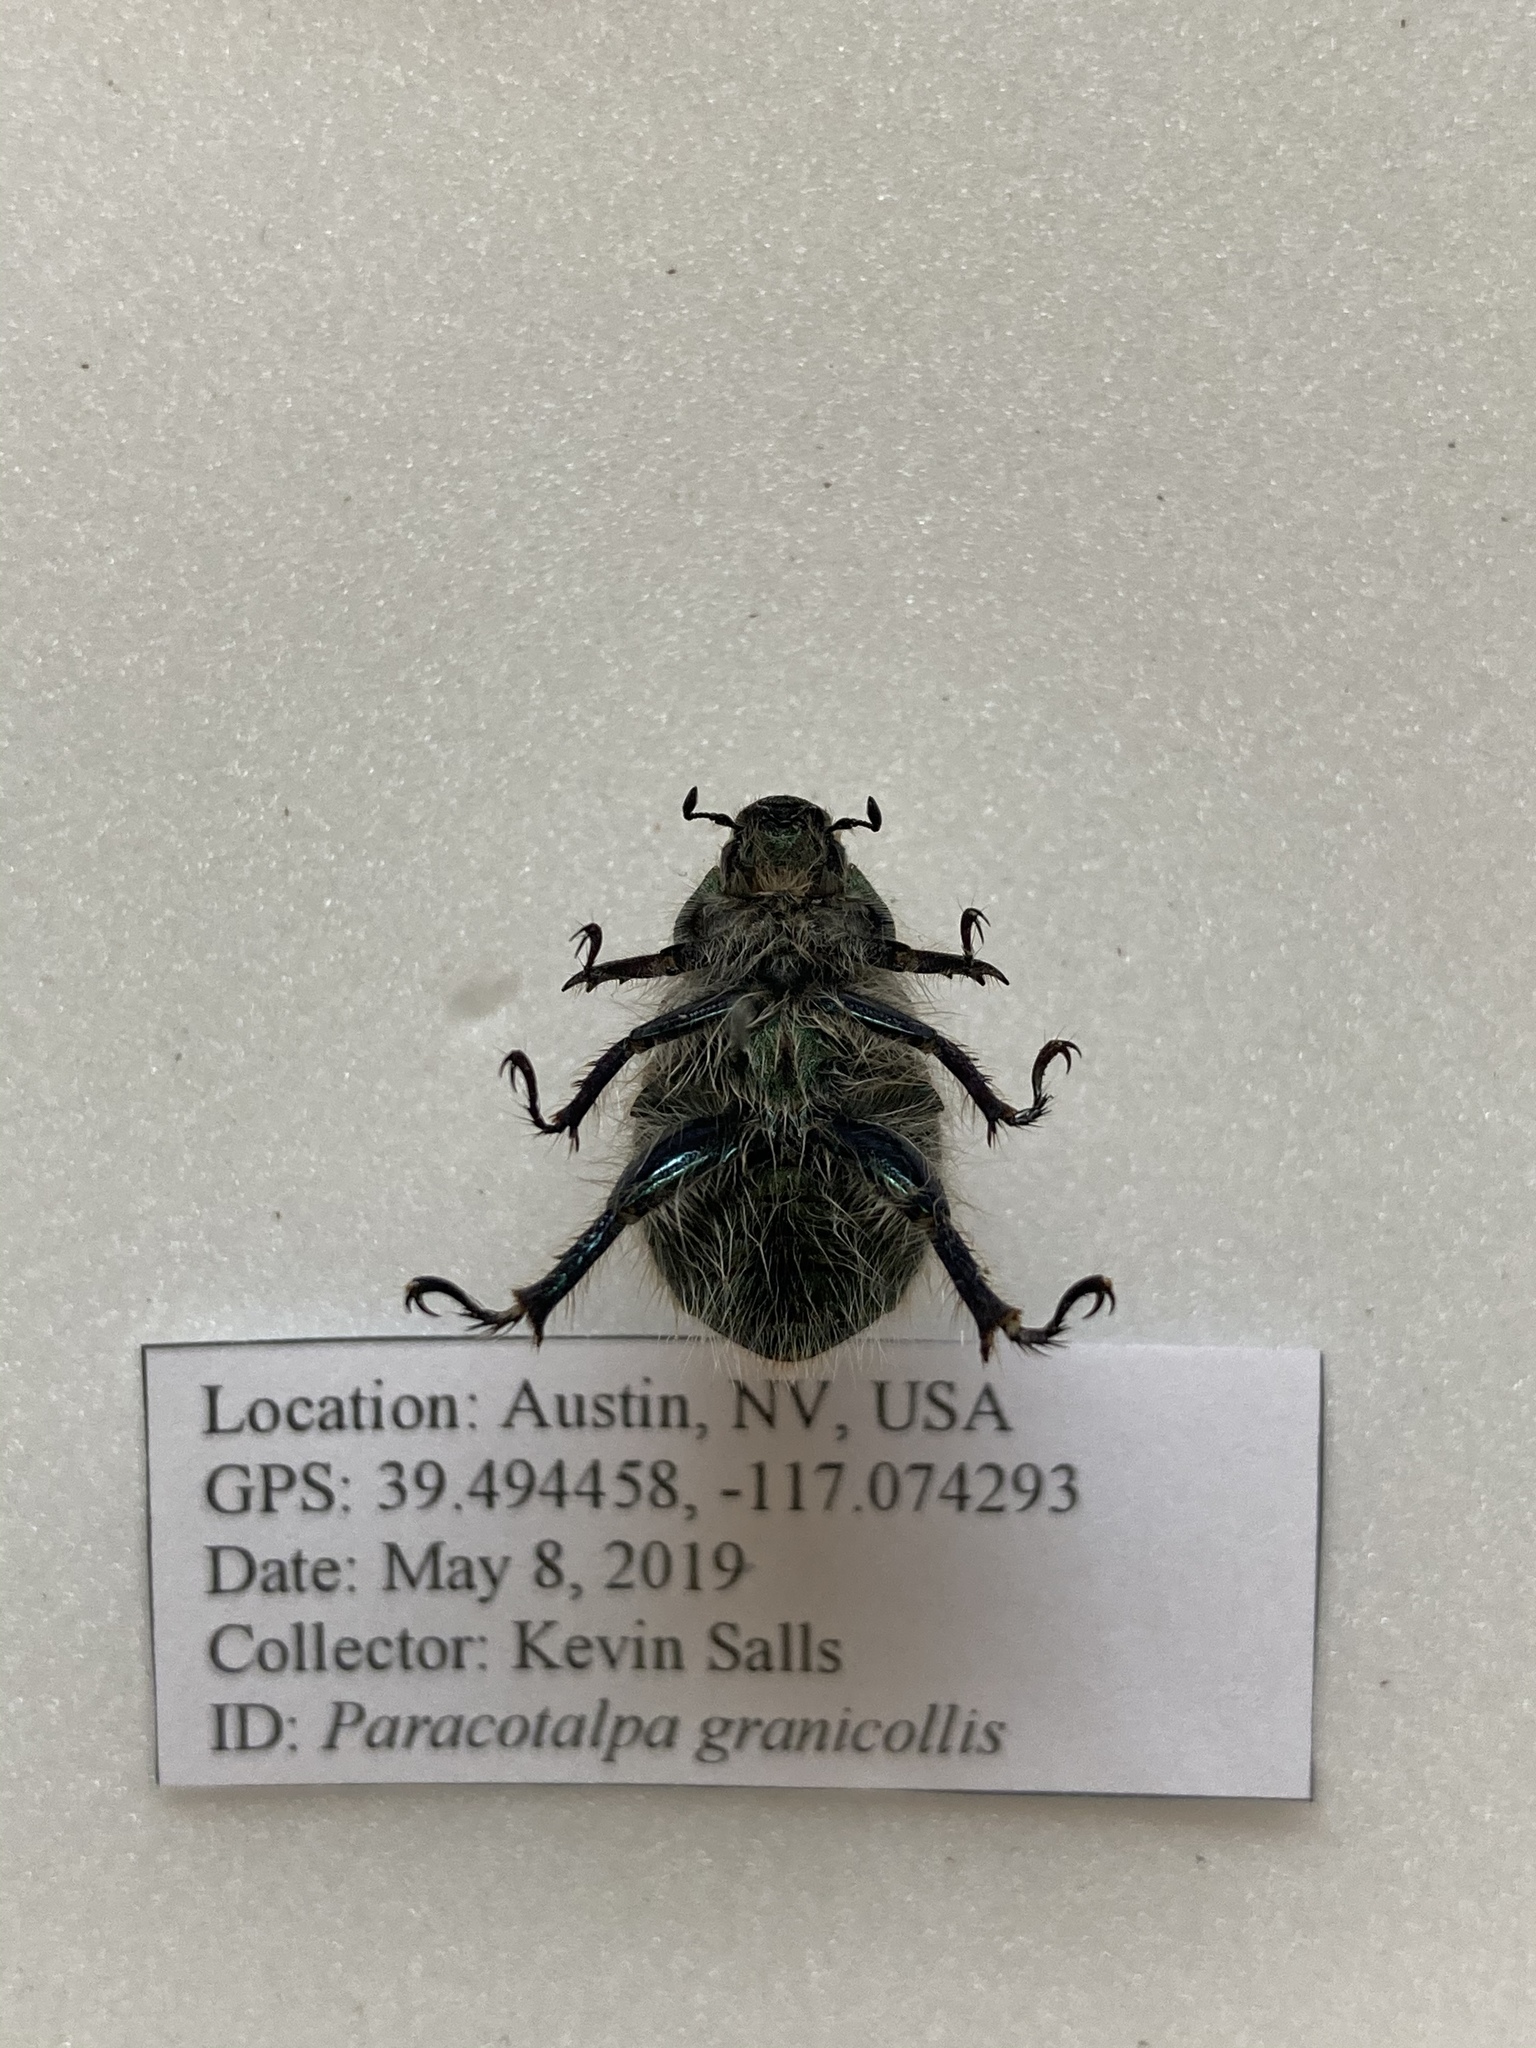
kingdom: Animalia
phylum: Arthropoda
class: Insecta
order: Coleoptera
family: Scarabaeidae
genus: Paracotalpa
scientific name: Paracotalpa granicollis
